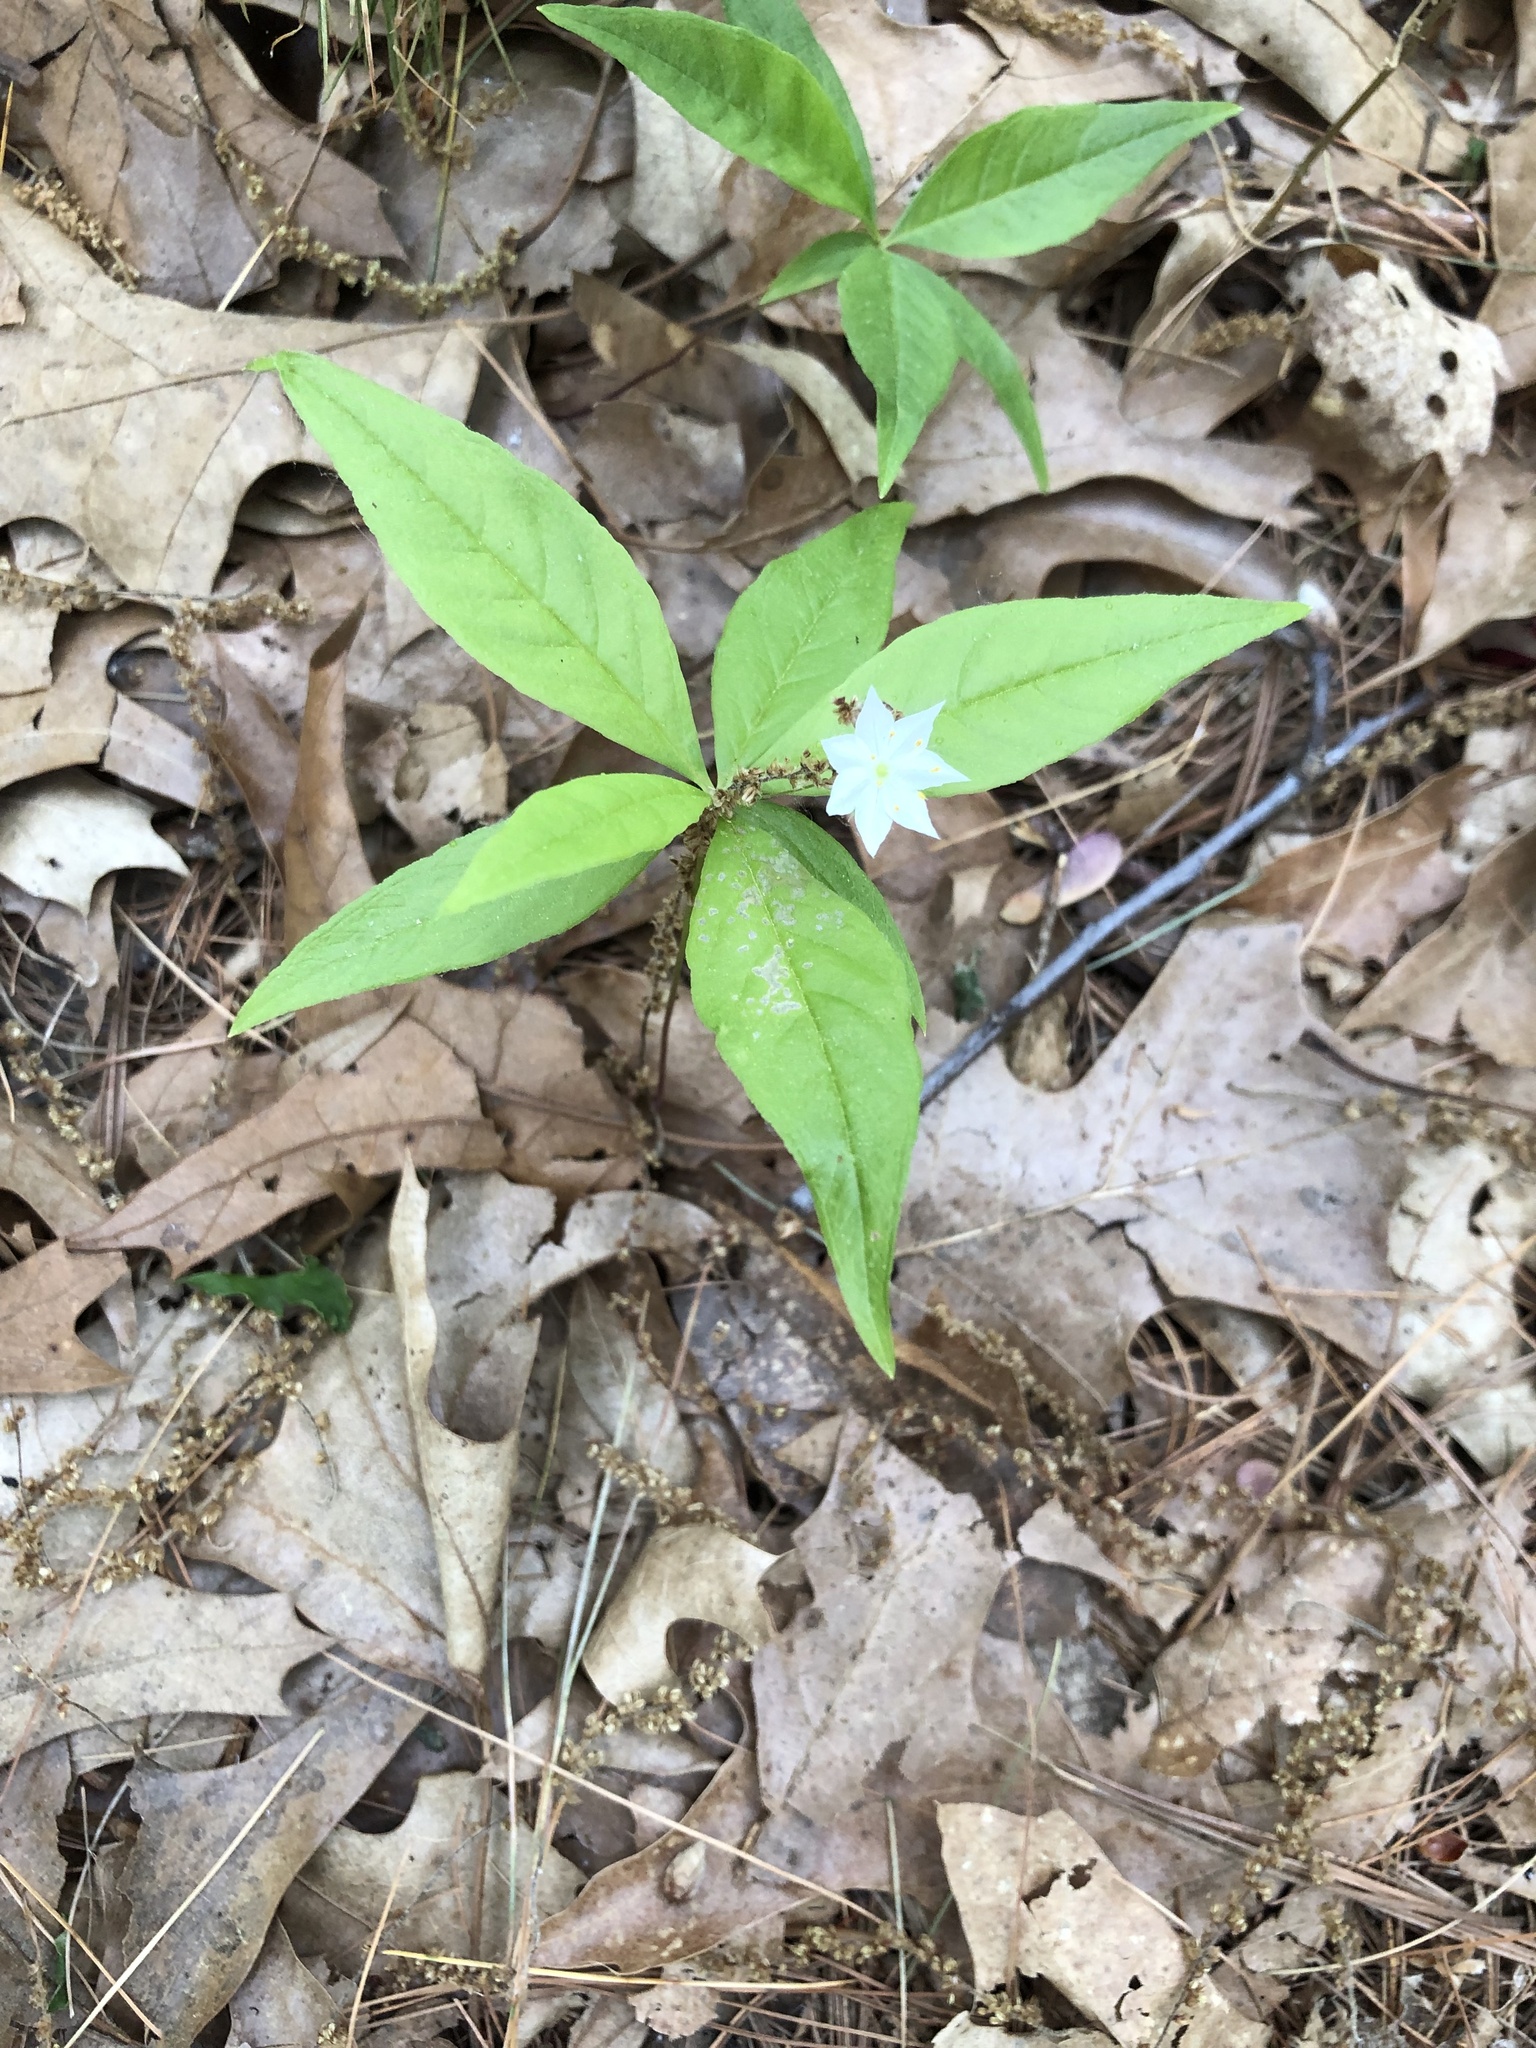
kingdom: Plantae
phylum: Tracheophyta
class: Magnoliopsida
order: Ericales
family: Primulaceae
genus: Lysimachia
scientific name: Lysimachia borealis
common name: American starflower
